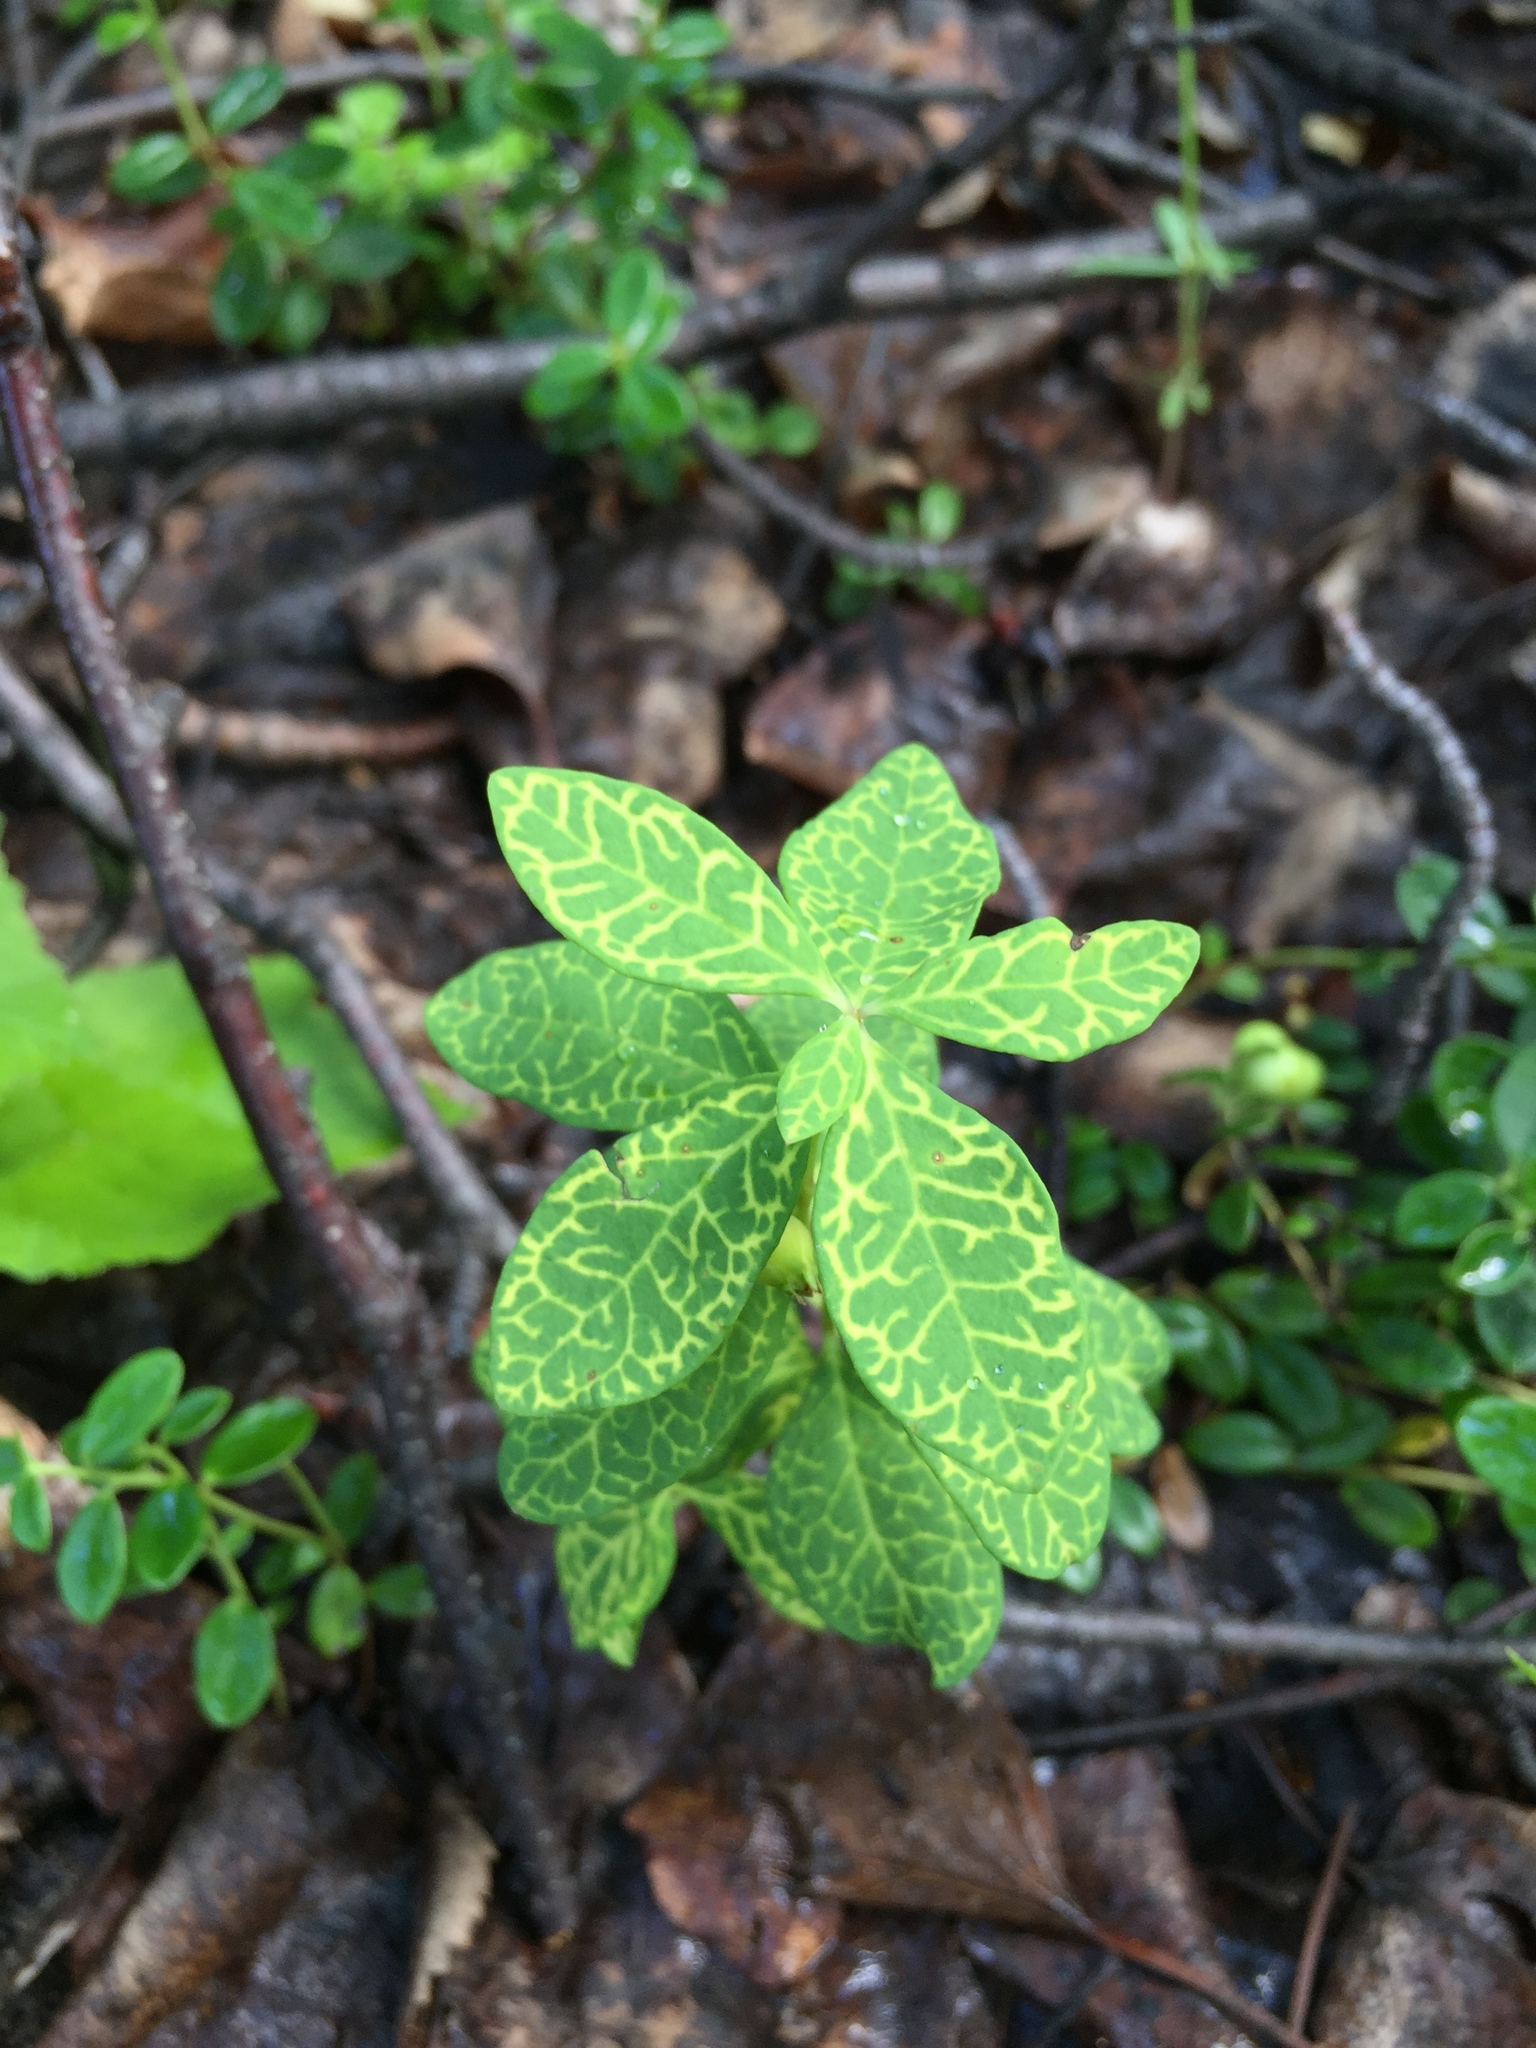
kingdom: Plantae
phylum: Tracheophyta
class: Magnoliopsida
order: Santalales
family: Comandraceae
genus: Geocaulon
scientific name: Geocaulon lividum
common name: Earthberry
